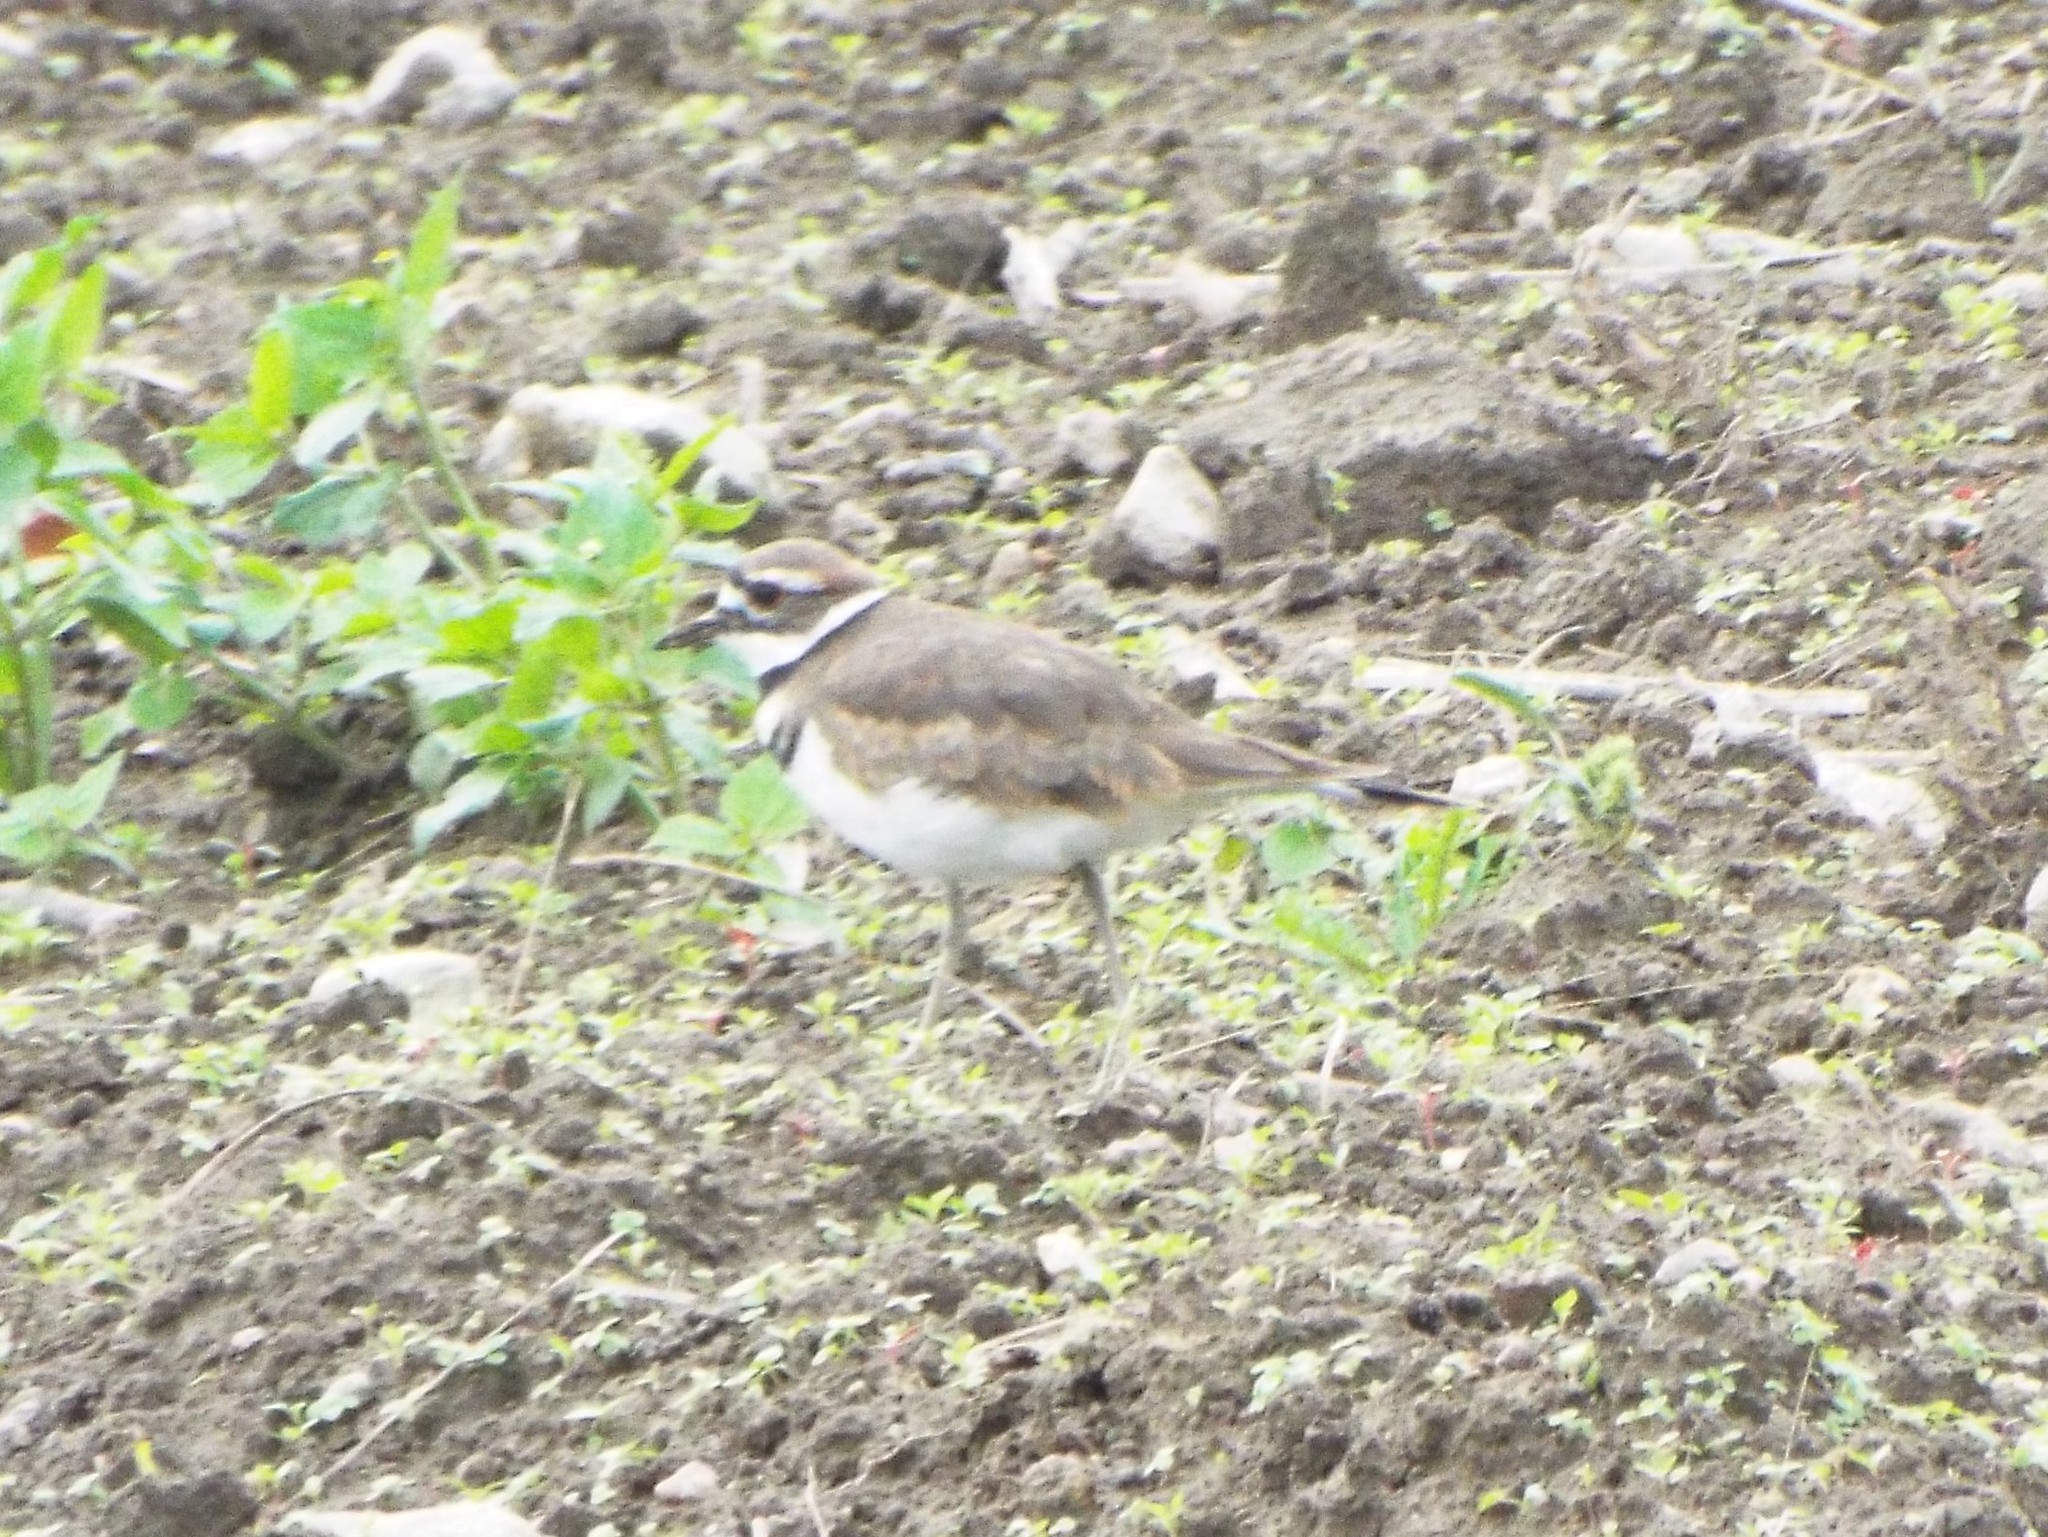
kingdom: Animalia
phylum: Chordata
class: Aves
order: Charadriiformes
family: Charadriidae
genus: Charadrius
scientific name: Charadrius vociferus
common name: Killdeer
